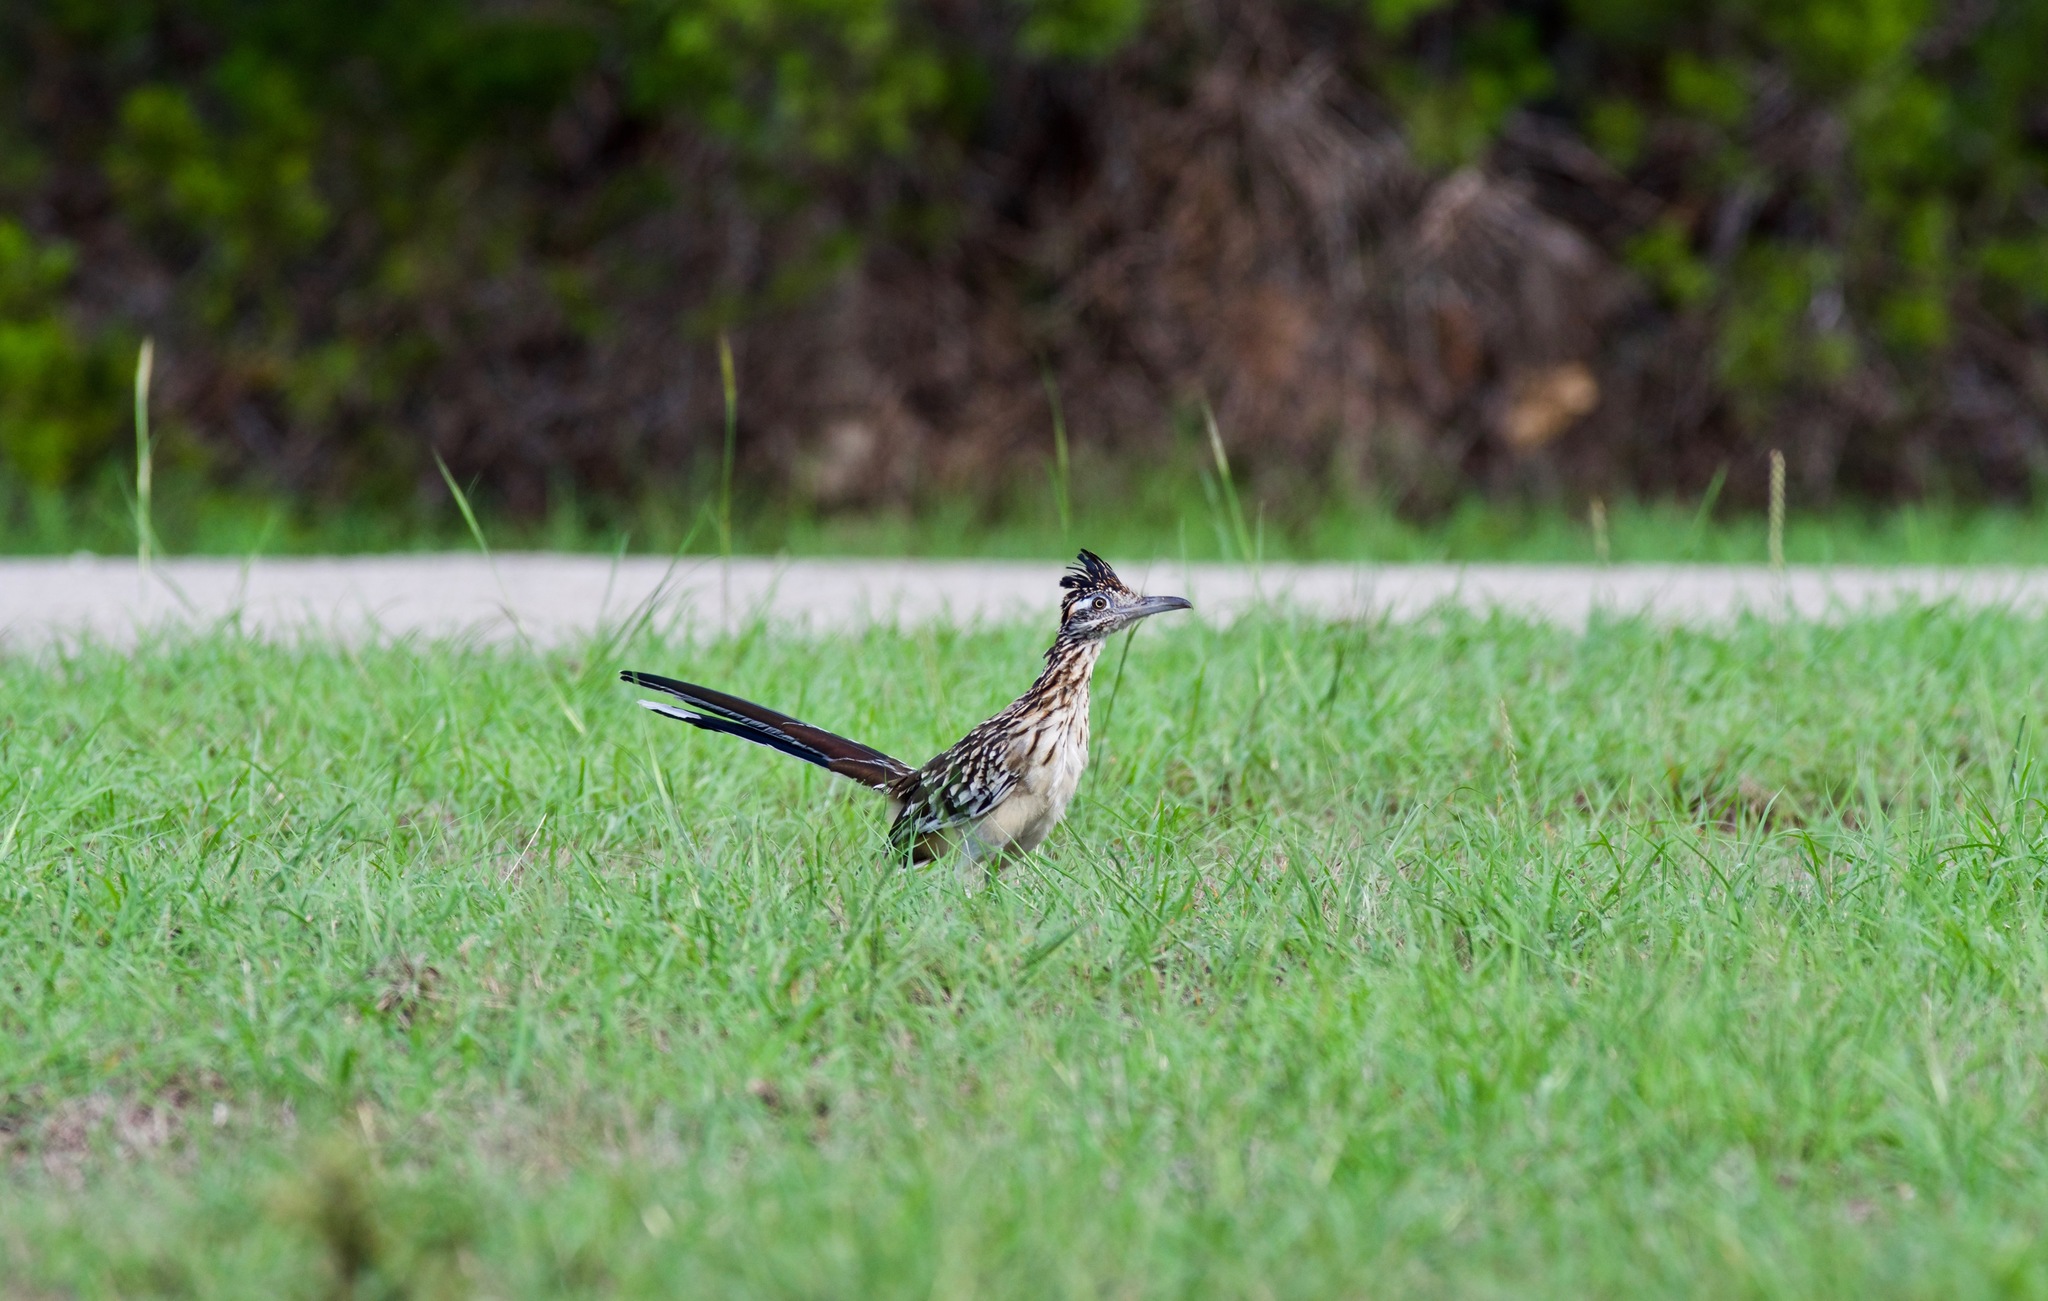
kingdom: Animalia
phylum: Chordata
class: Aves
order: Cuculiformes
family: Cuculidae
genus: Geococcyx
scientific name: Geococcyx californianus
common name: Greater roadrunner
